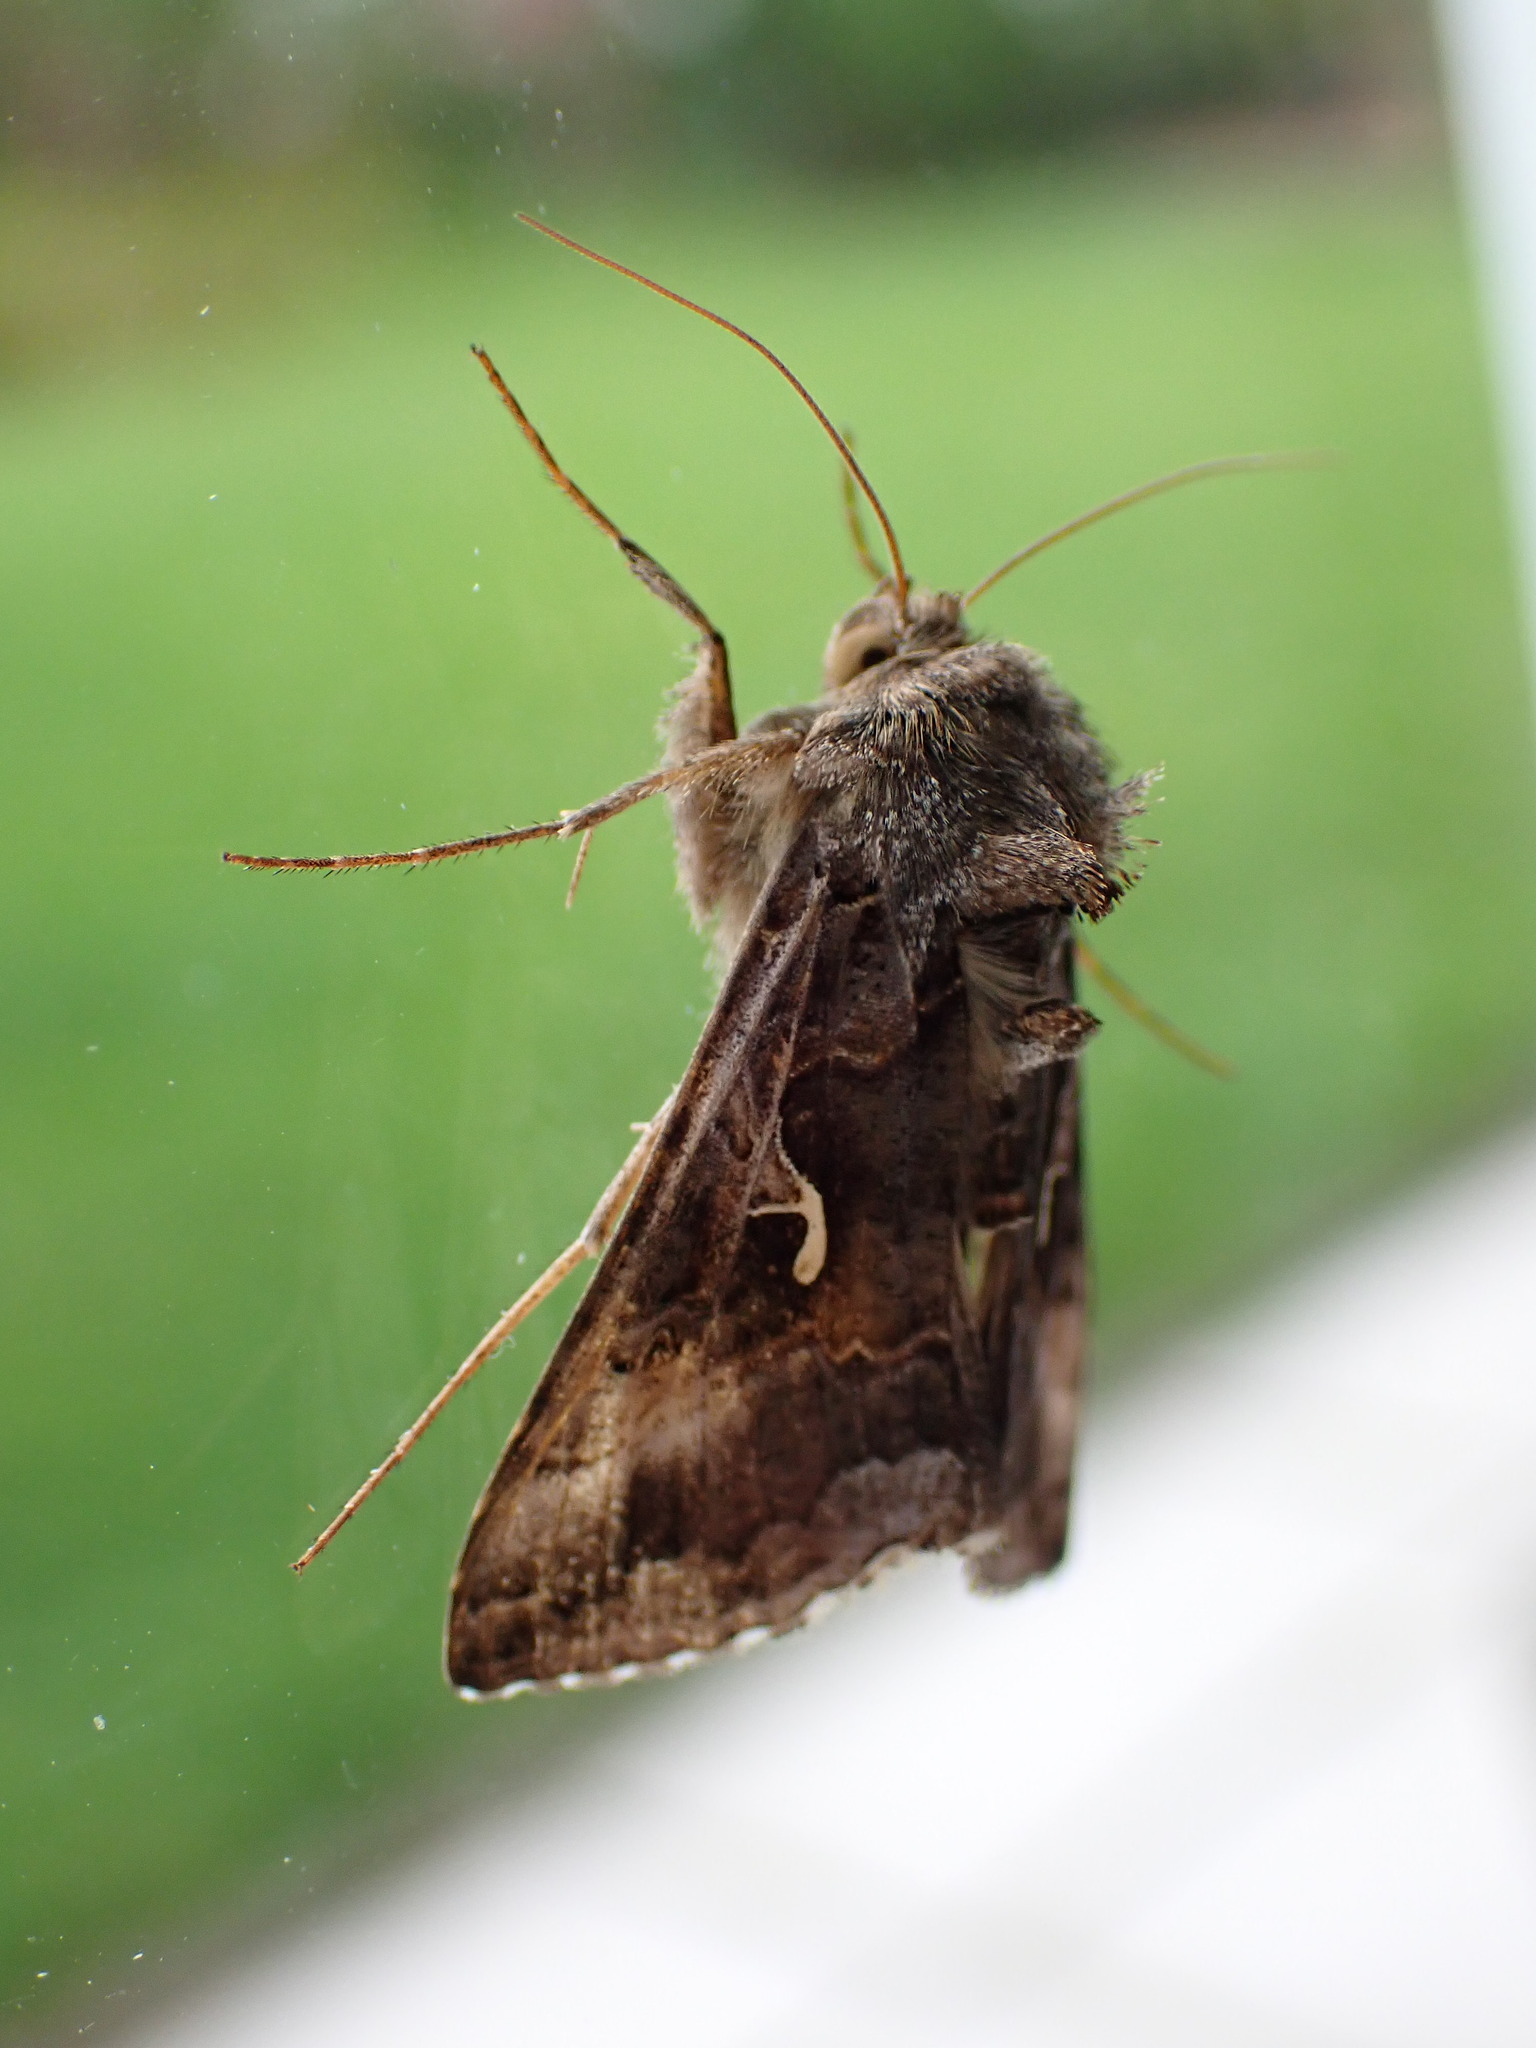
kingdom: Animalia
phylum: Arthropoda
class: Insecta
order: Lepidoptera
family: Noctuidae
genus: Autographa
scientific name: Autographa gamma
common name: Silver y
